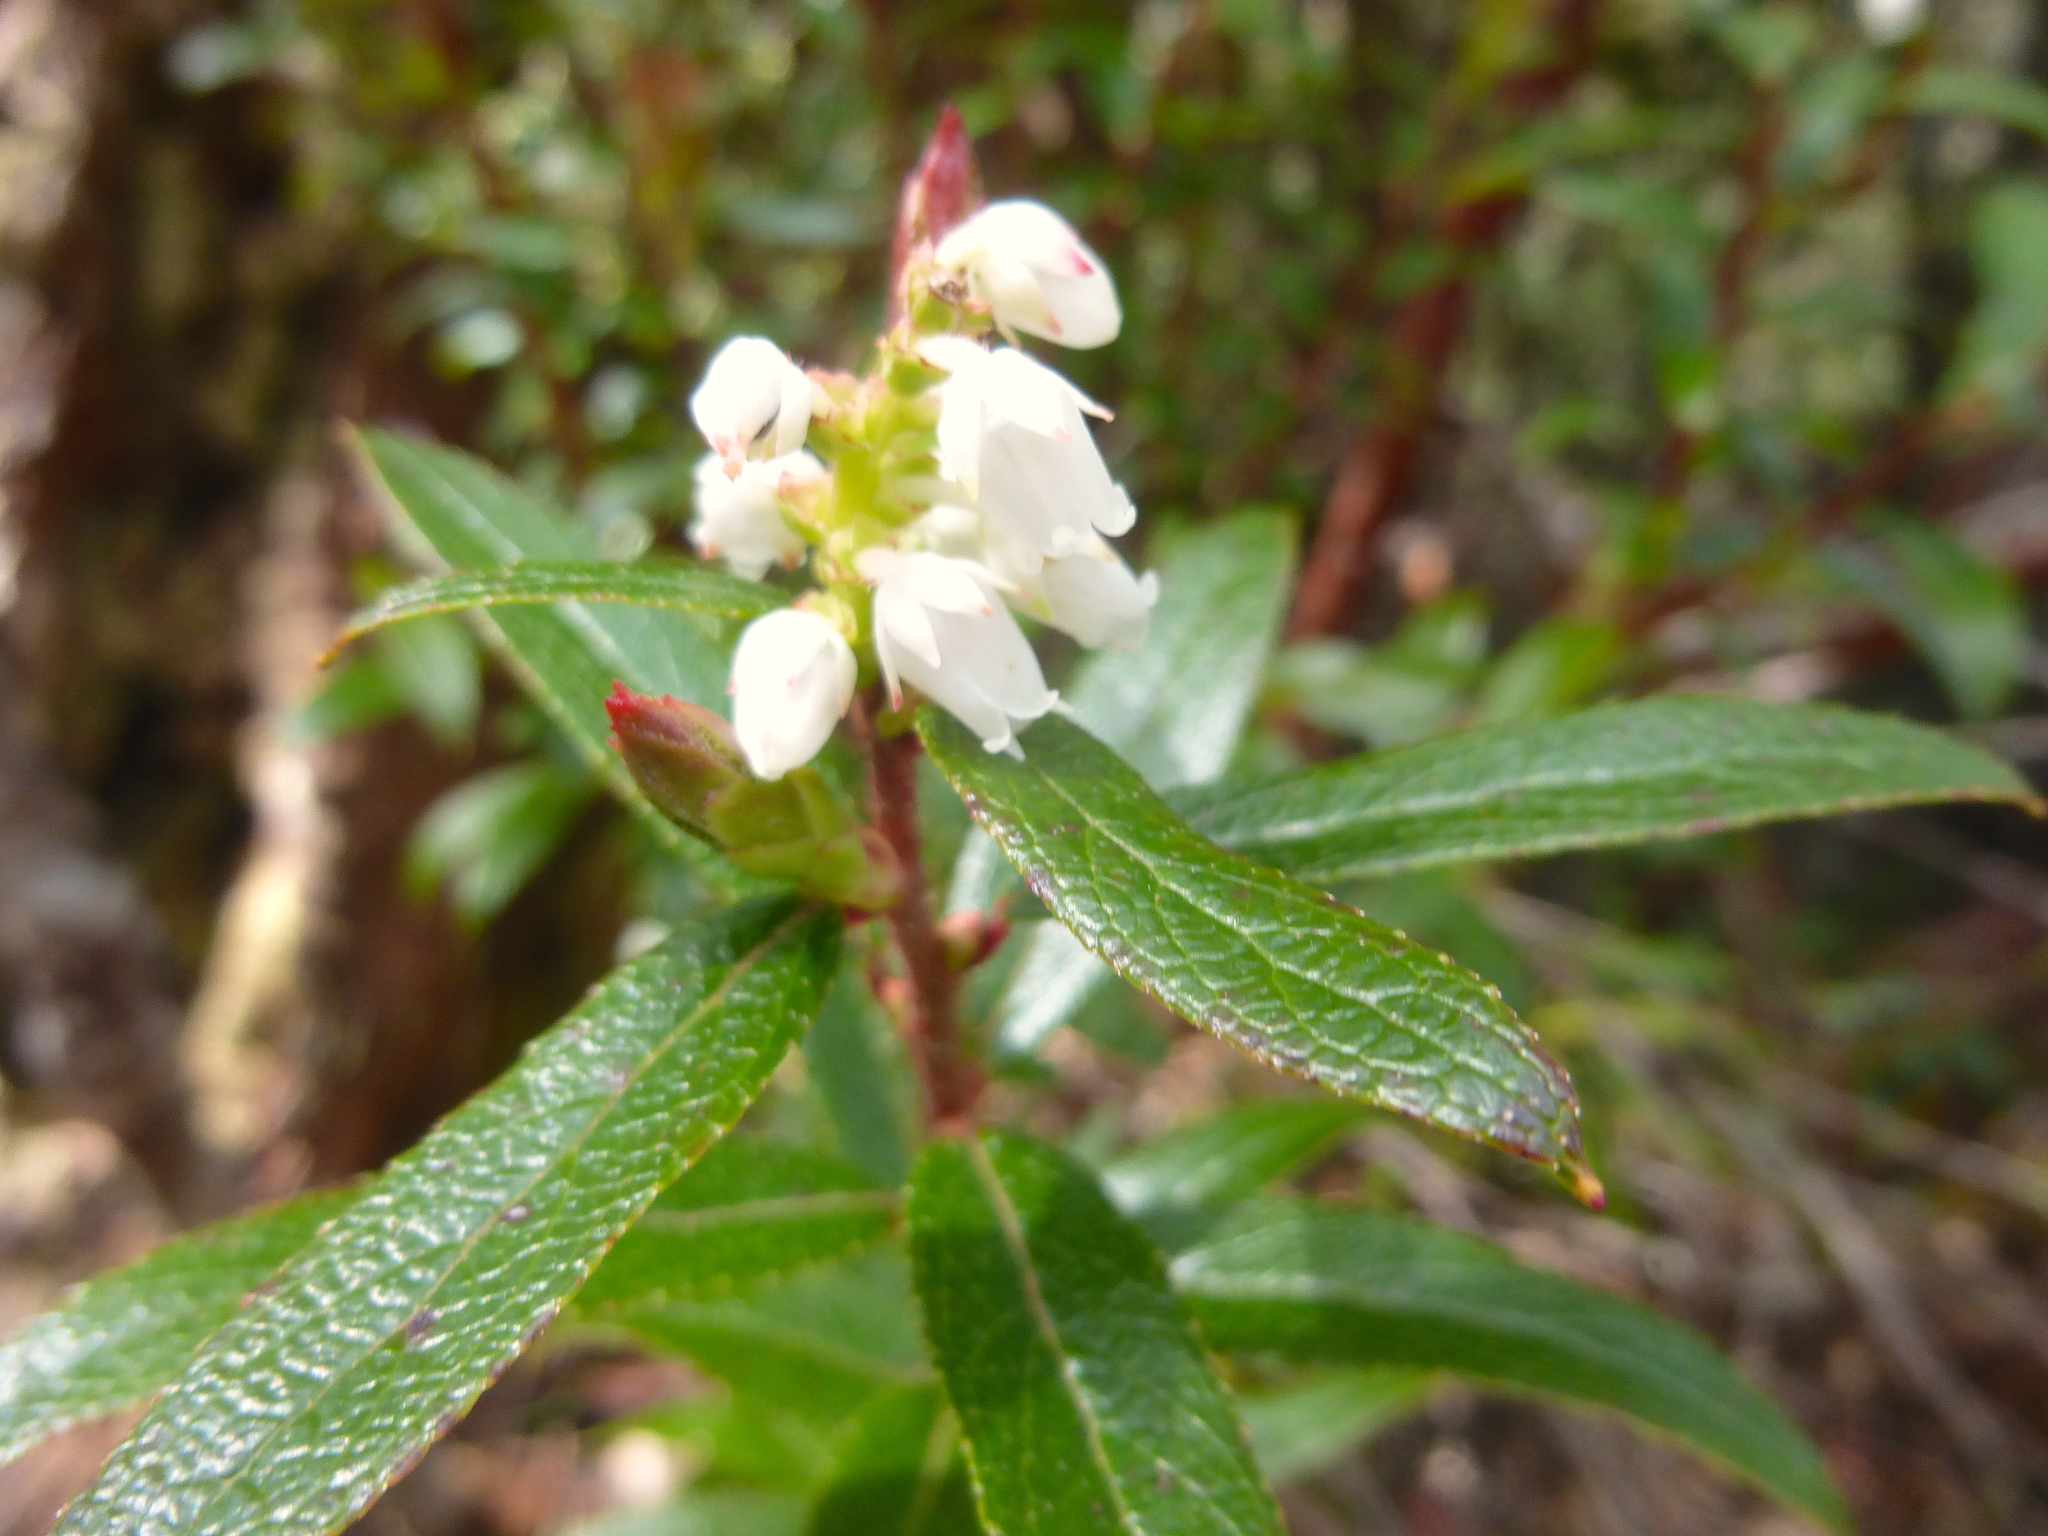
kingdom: Plantae
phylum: Tracheophyta
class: Magnoliopsida
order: Ericales
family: Ericaceae
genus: Gaultheria
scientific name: Gaultheria hispida
